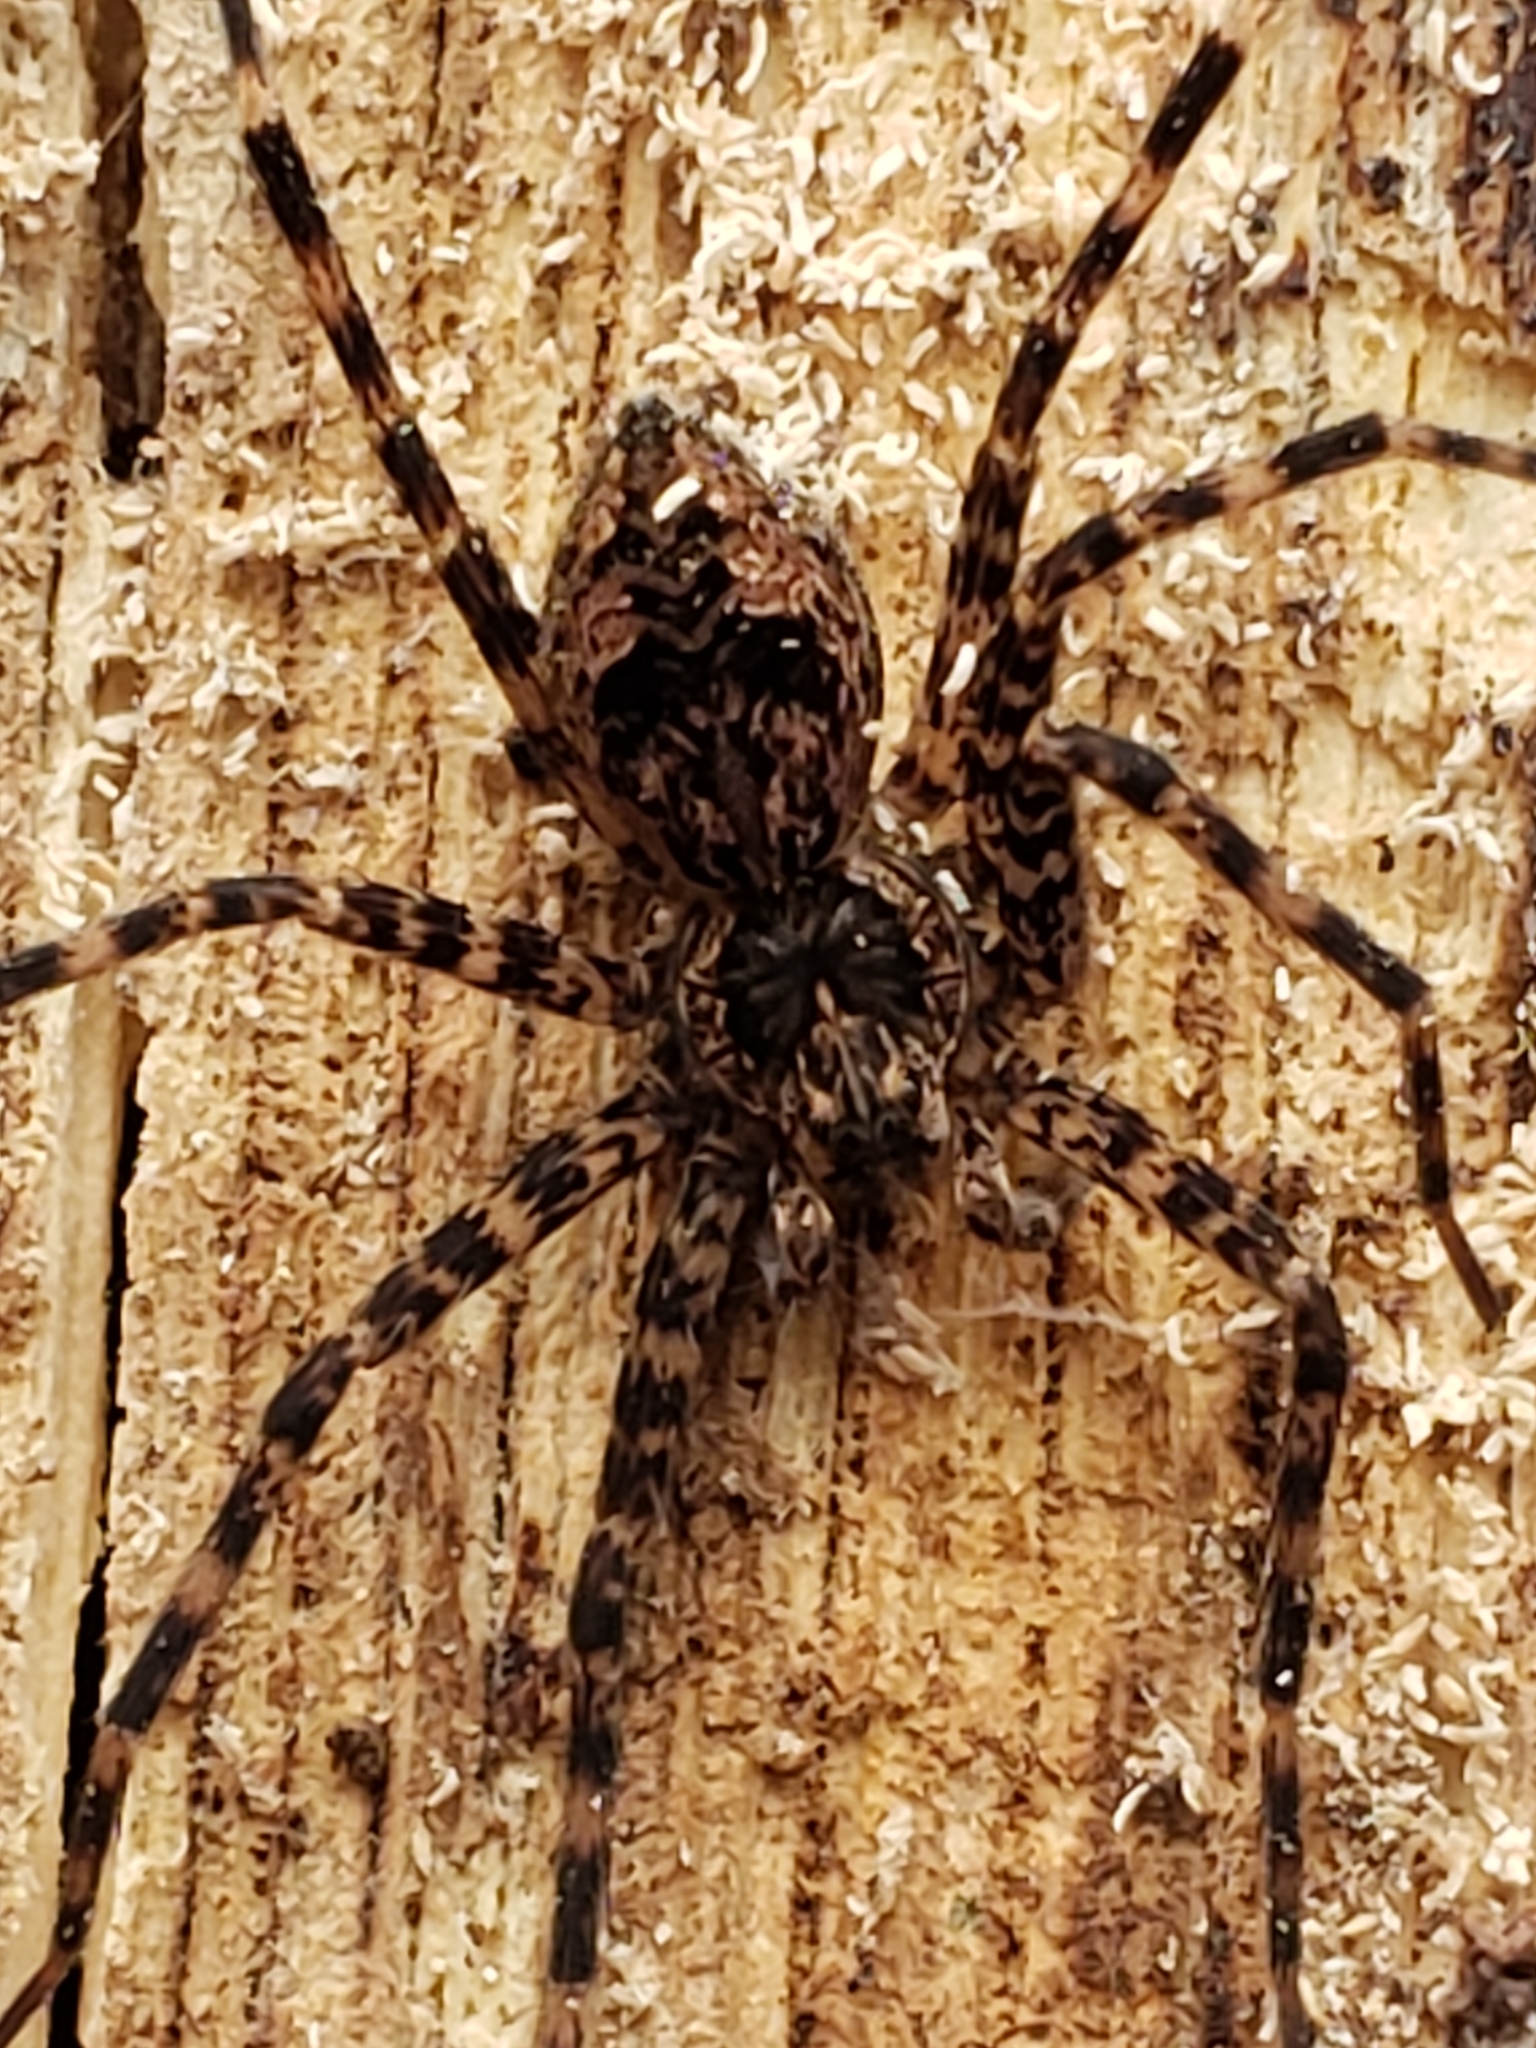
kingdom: Animalia
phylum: Arthropoda
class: Arachnida
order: Araneae
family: Pisauridae
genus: Dolomedes
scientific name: Dolomedes tenebrosus
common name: Dark fishing spider
